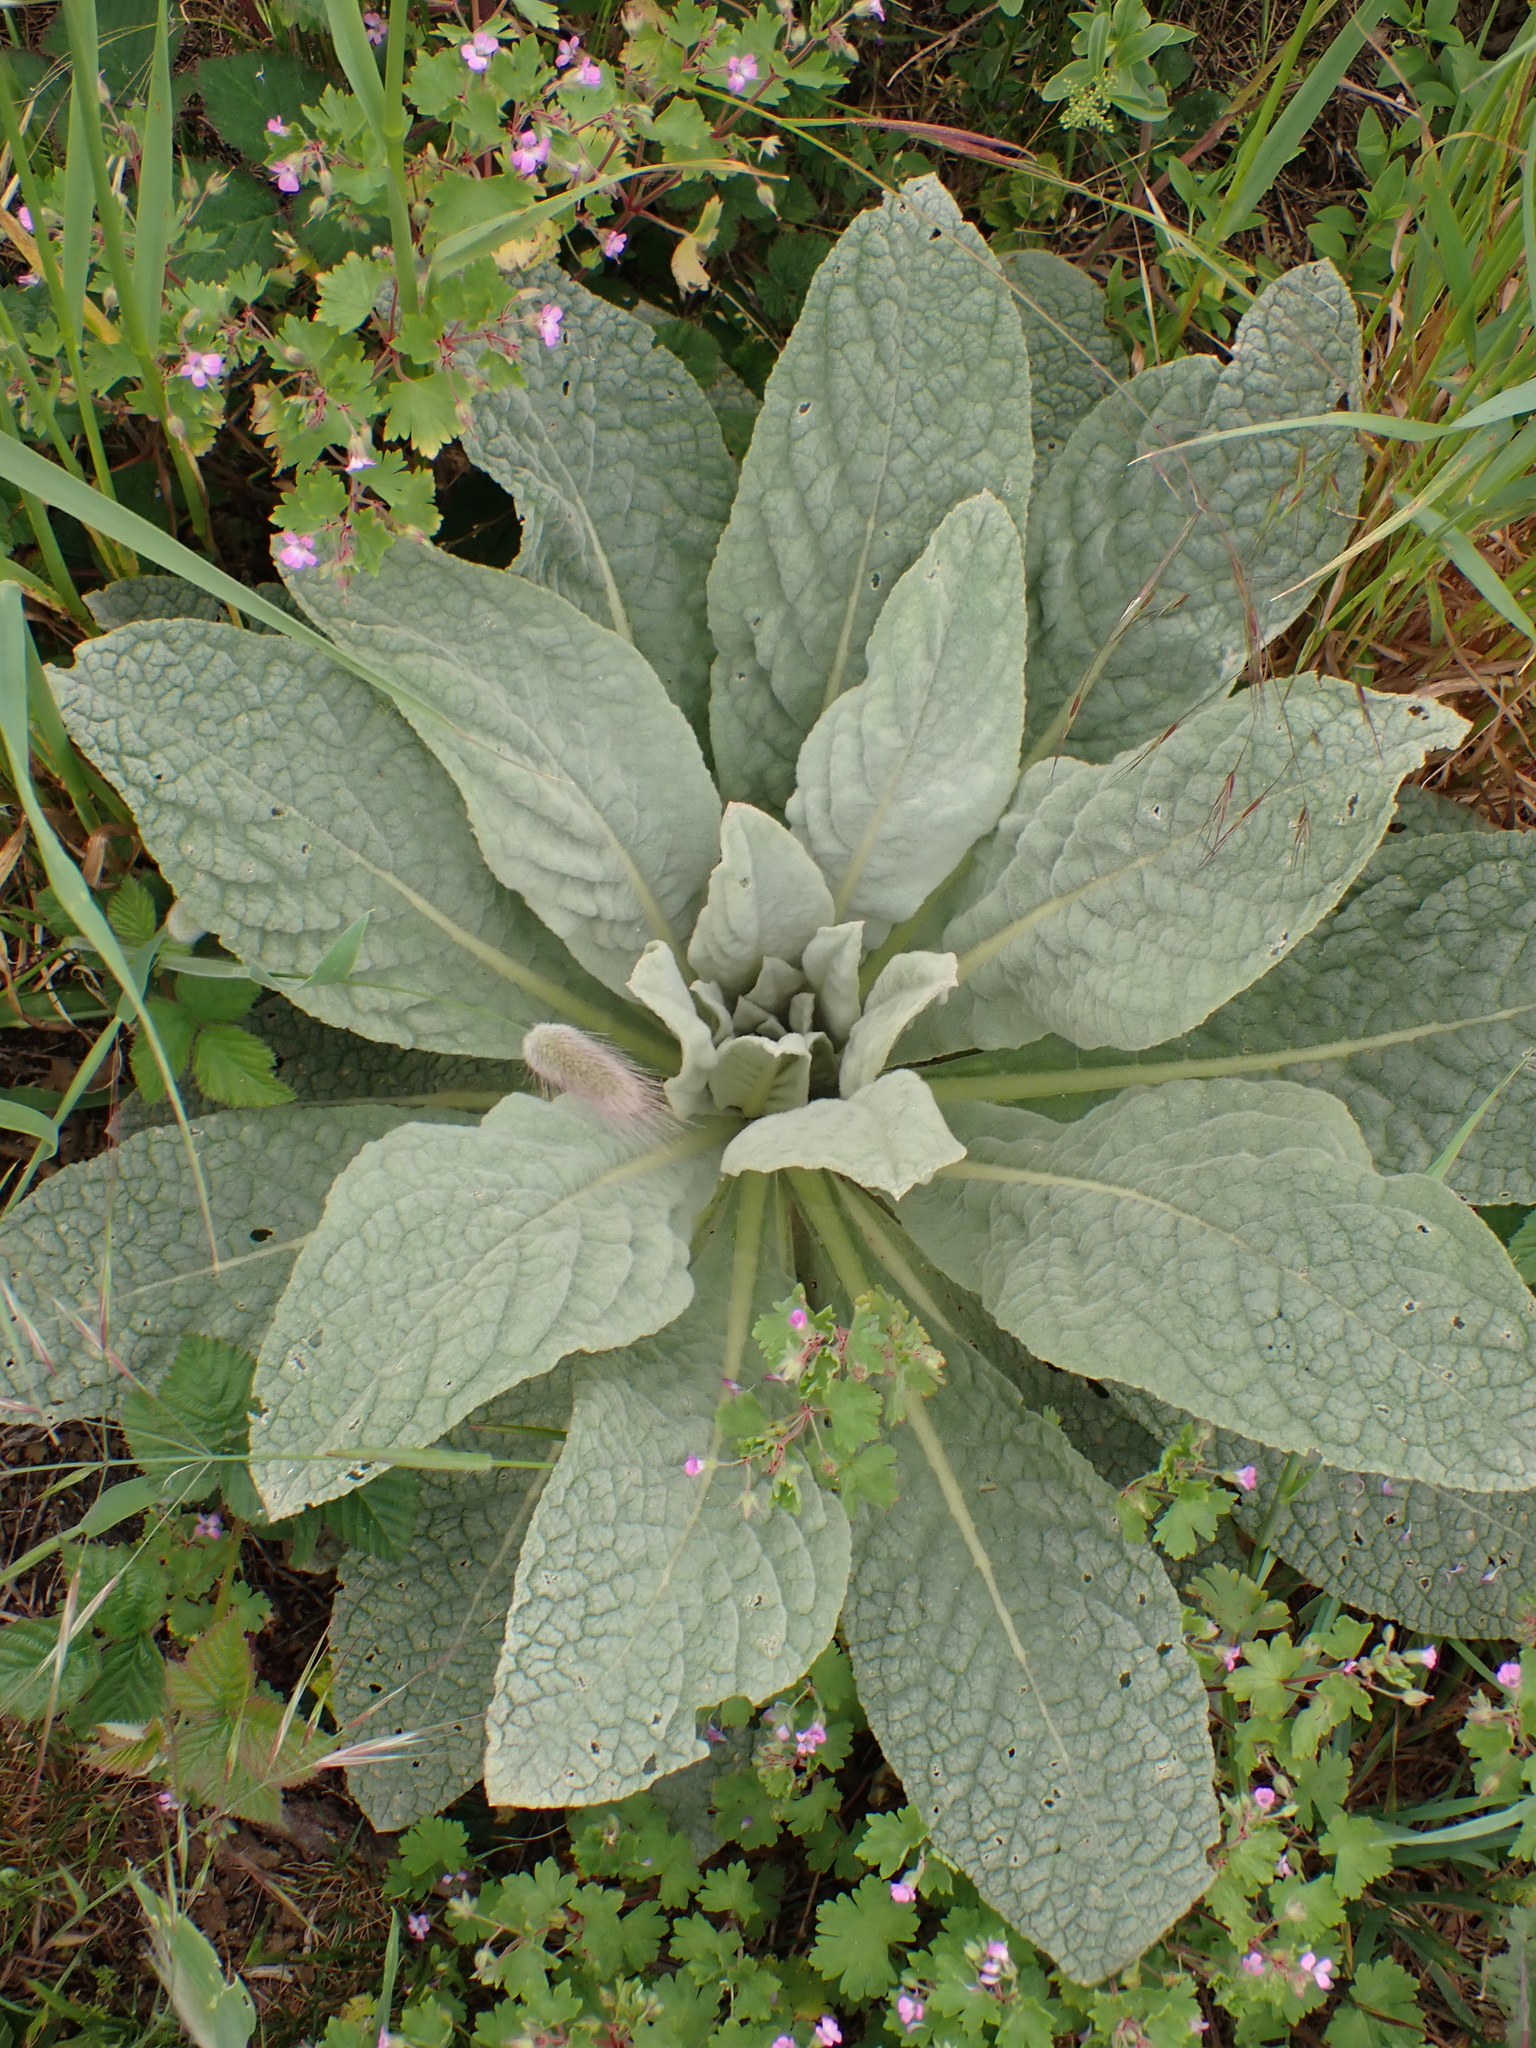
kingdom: Plantae
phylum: Tracheophyta
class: Magnoliopsida
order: Lamiales
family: Scrophulariaceae
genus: Verbascum
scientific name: Verbascum thapsus
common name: Common mullein
